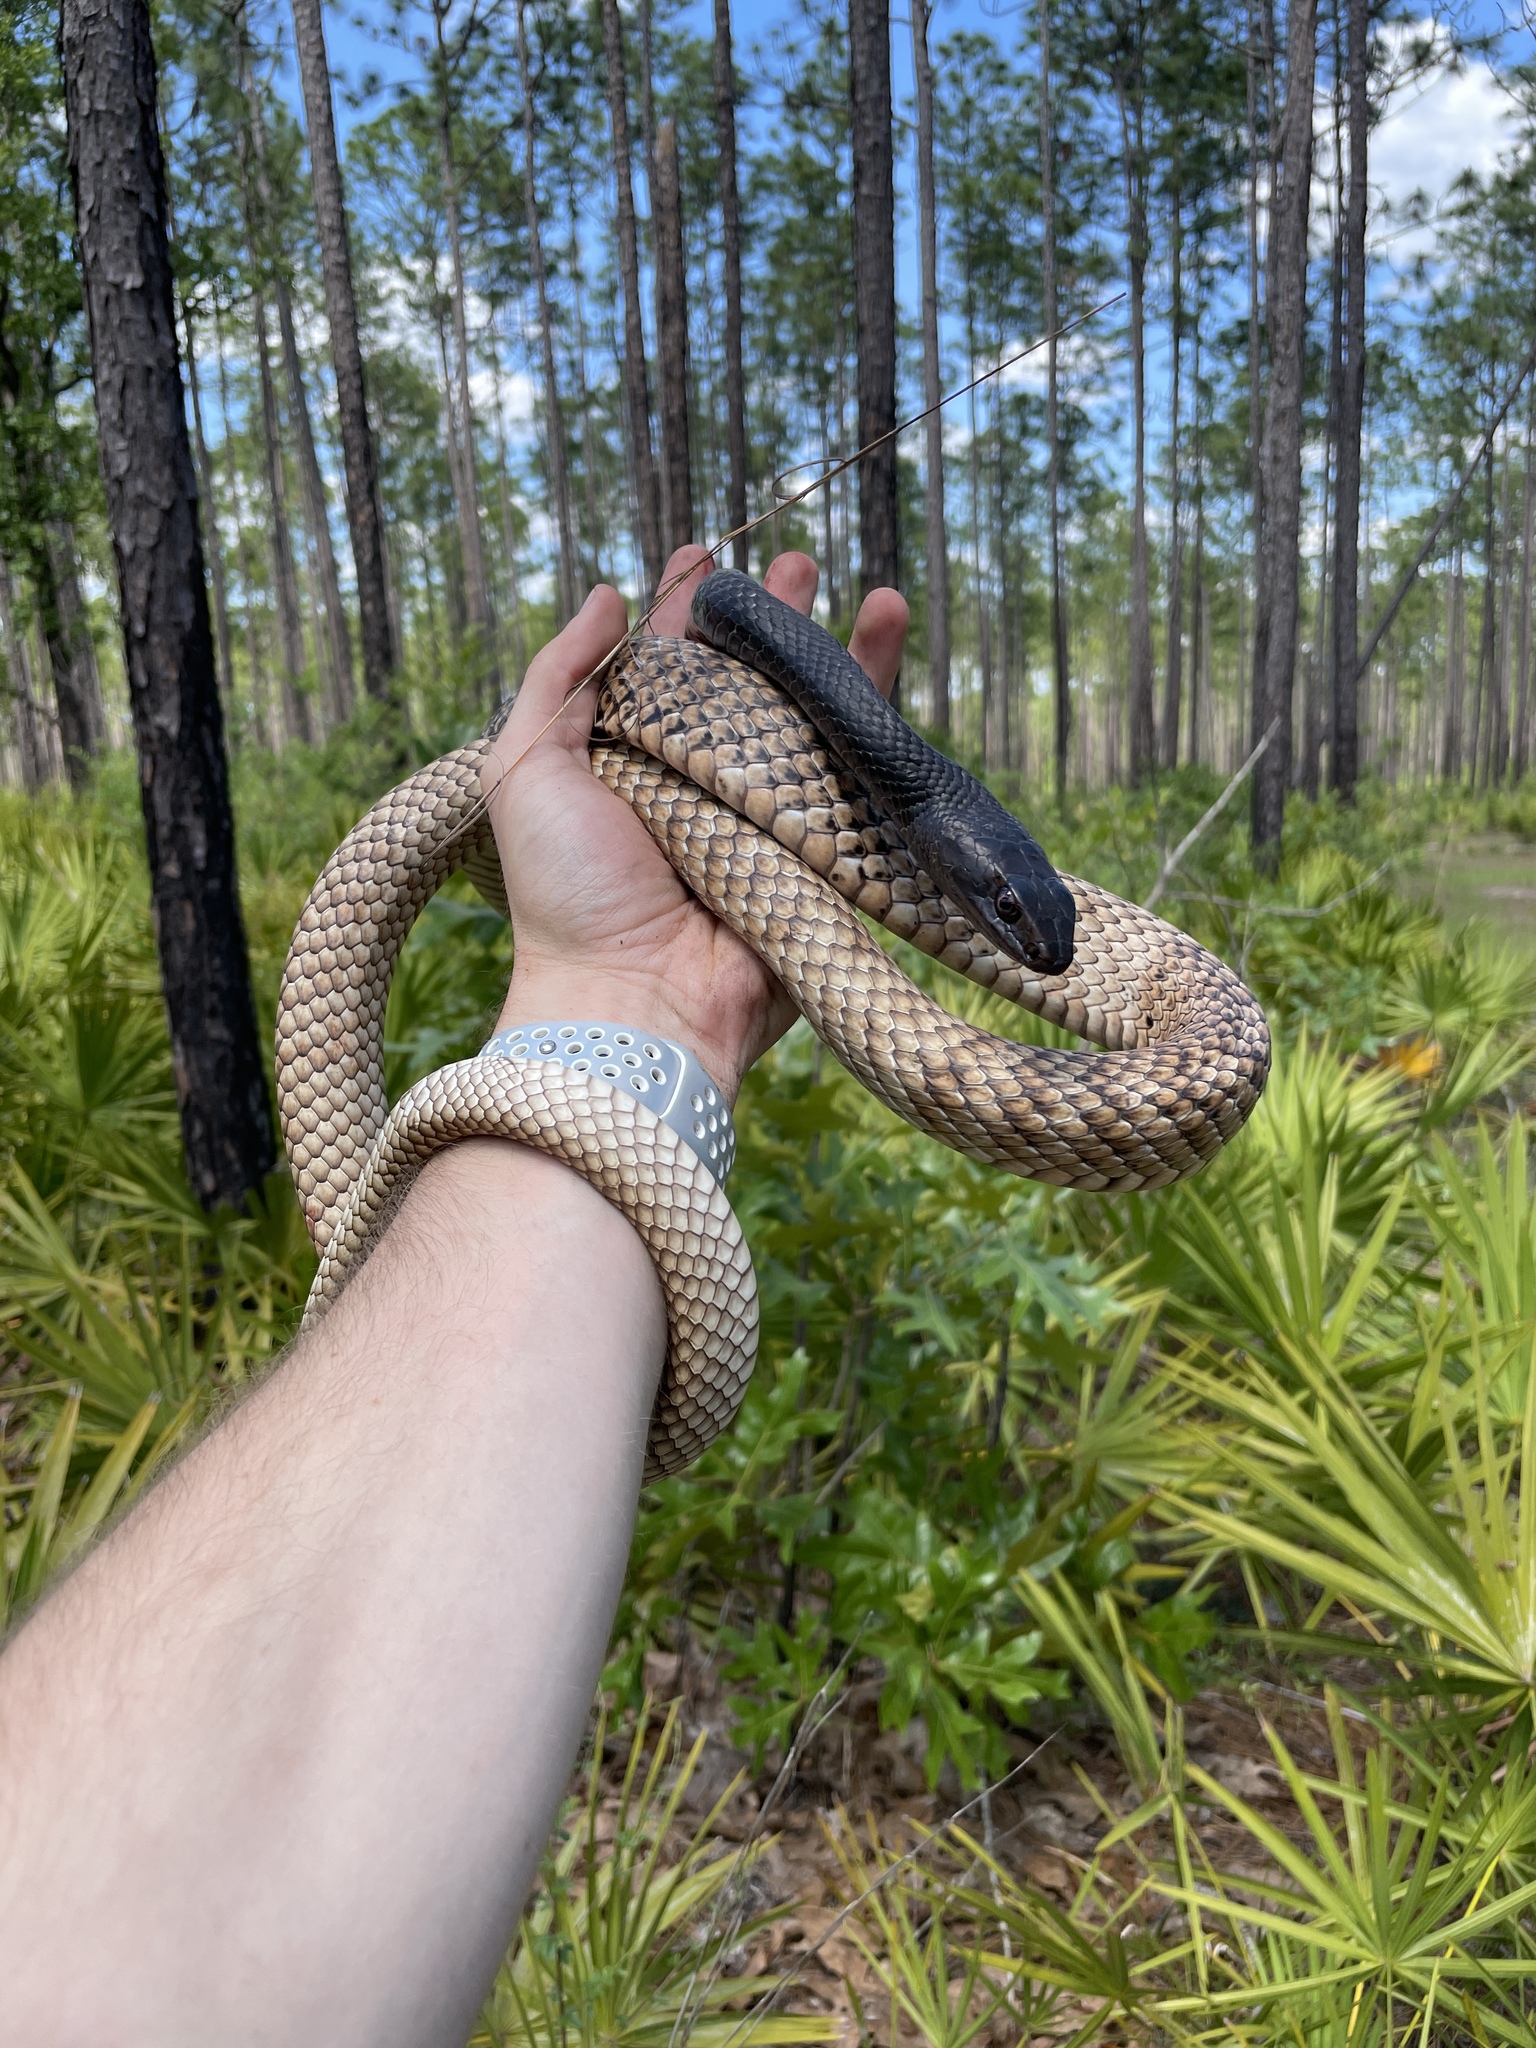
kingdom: Animalia
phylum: Chordata
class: Squamata
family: Colubridae
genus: Masticophis
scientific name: Masticophis flagellum
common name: Coachwhip
